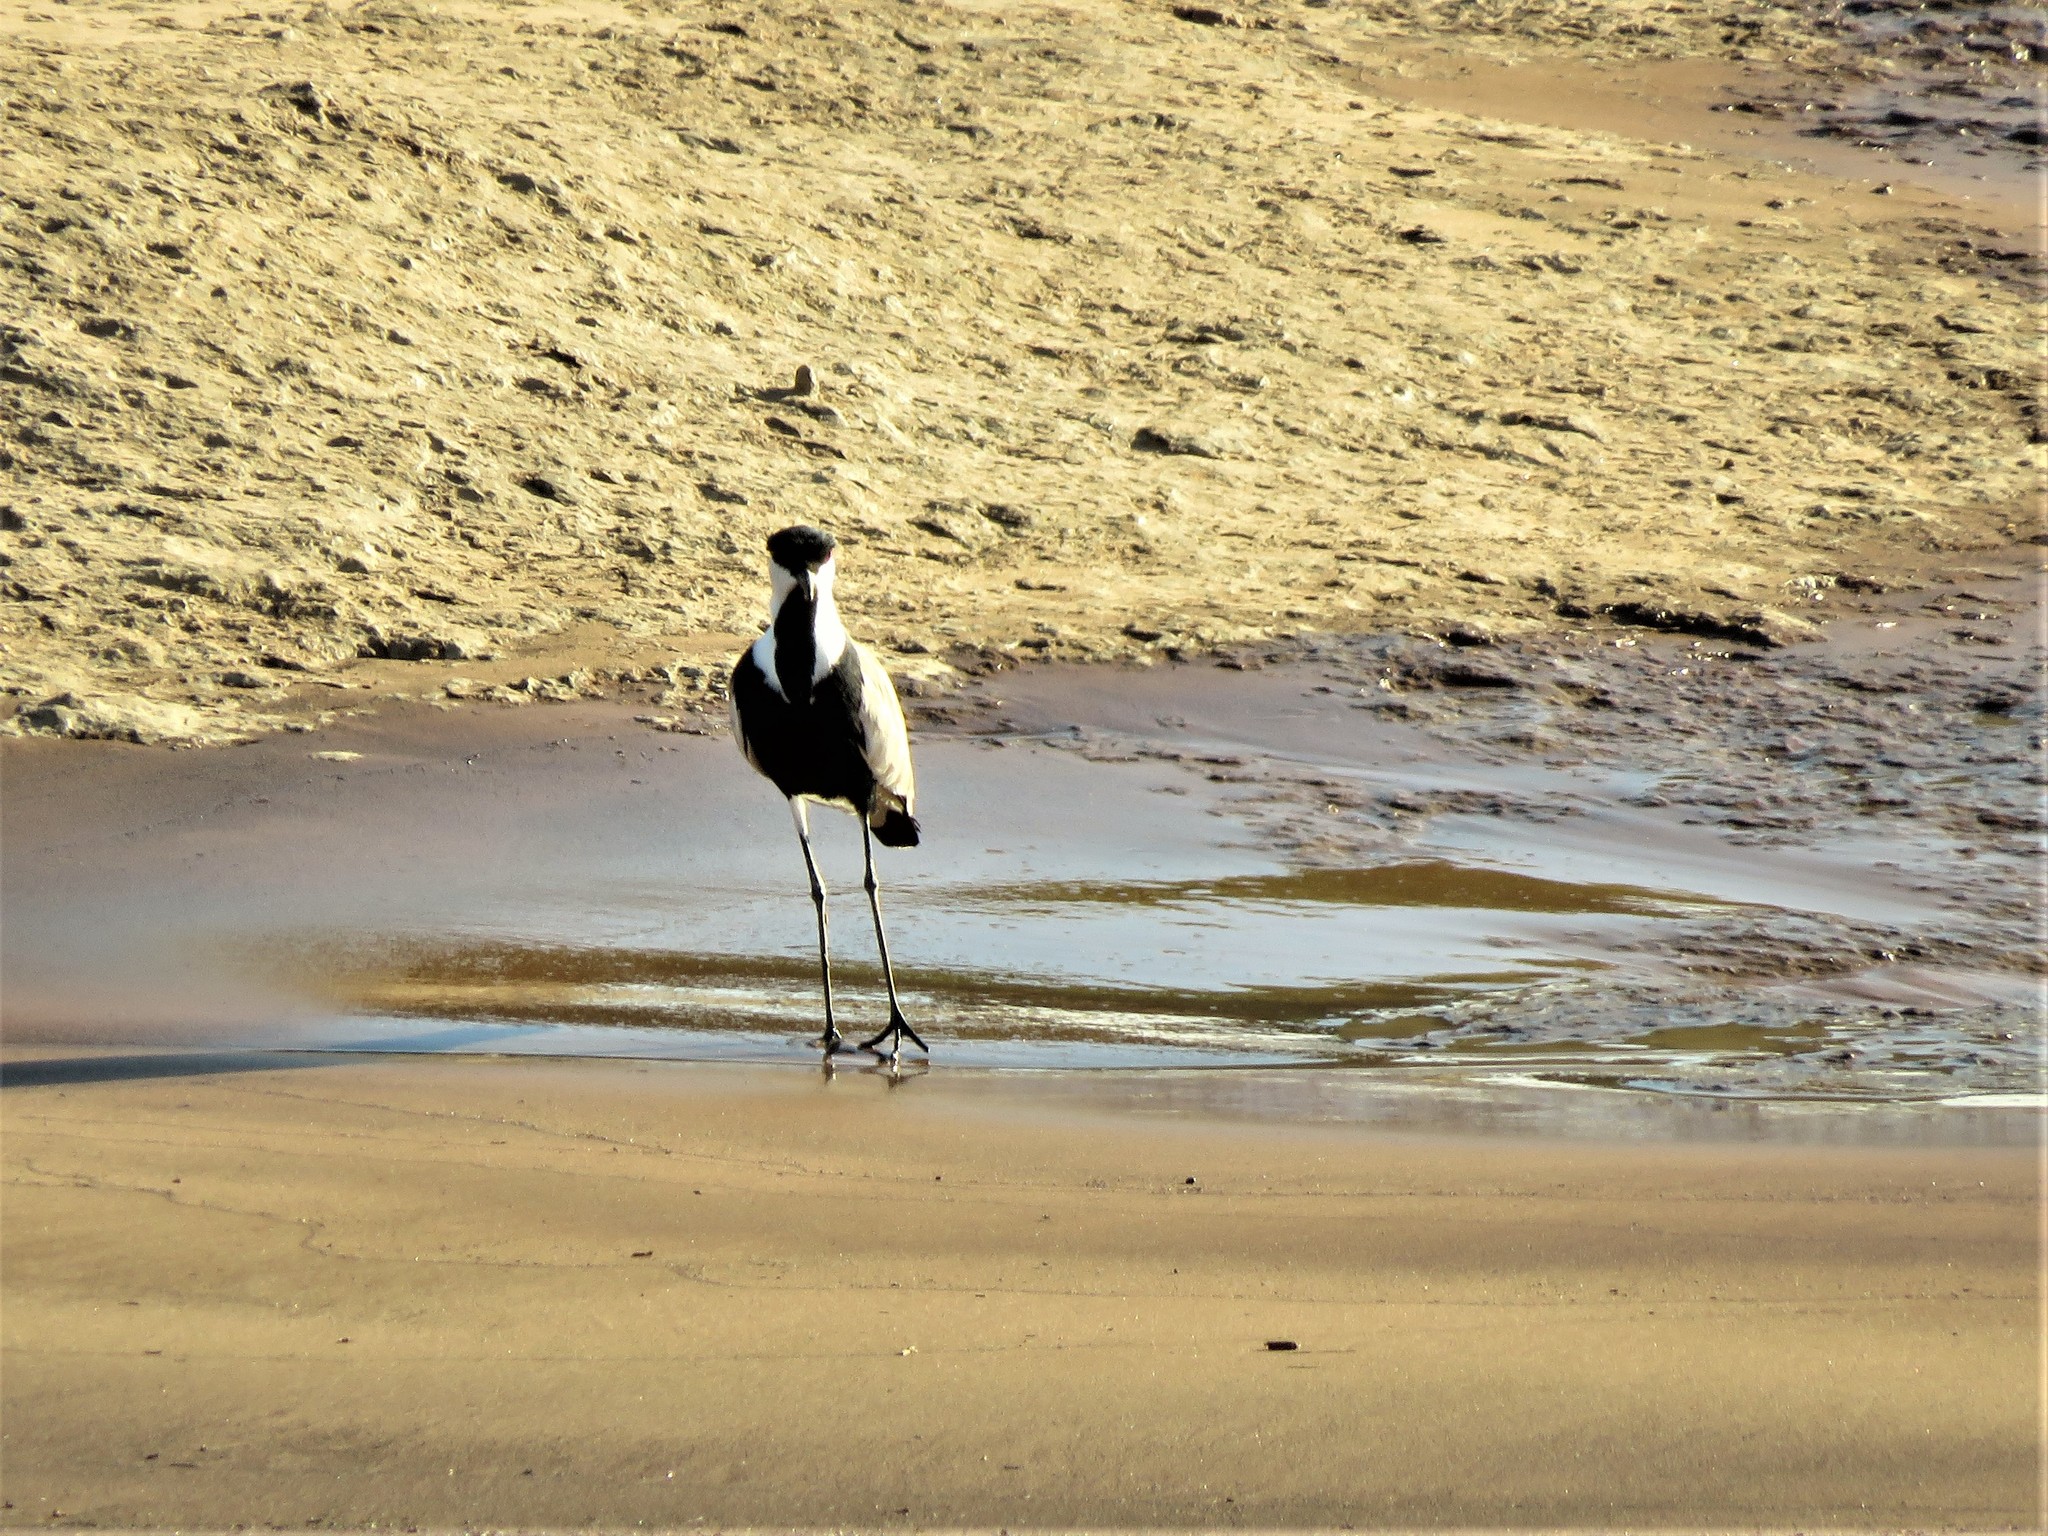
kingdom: Animalia
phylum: Chordata
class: Aves
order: Charadriiformes
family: Charadriidae
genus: Vanellus
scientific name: Vanellus spinosus
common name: Spur-winged lapwing
